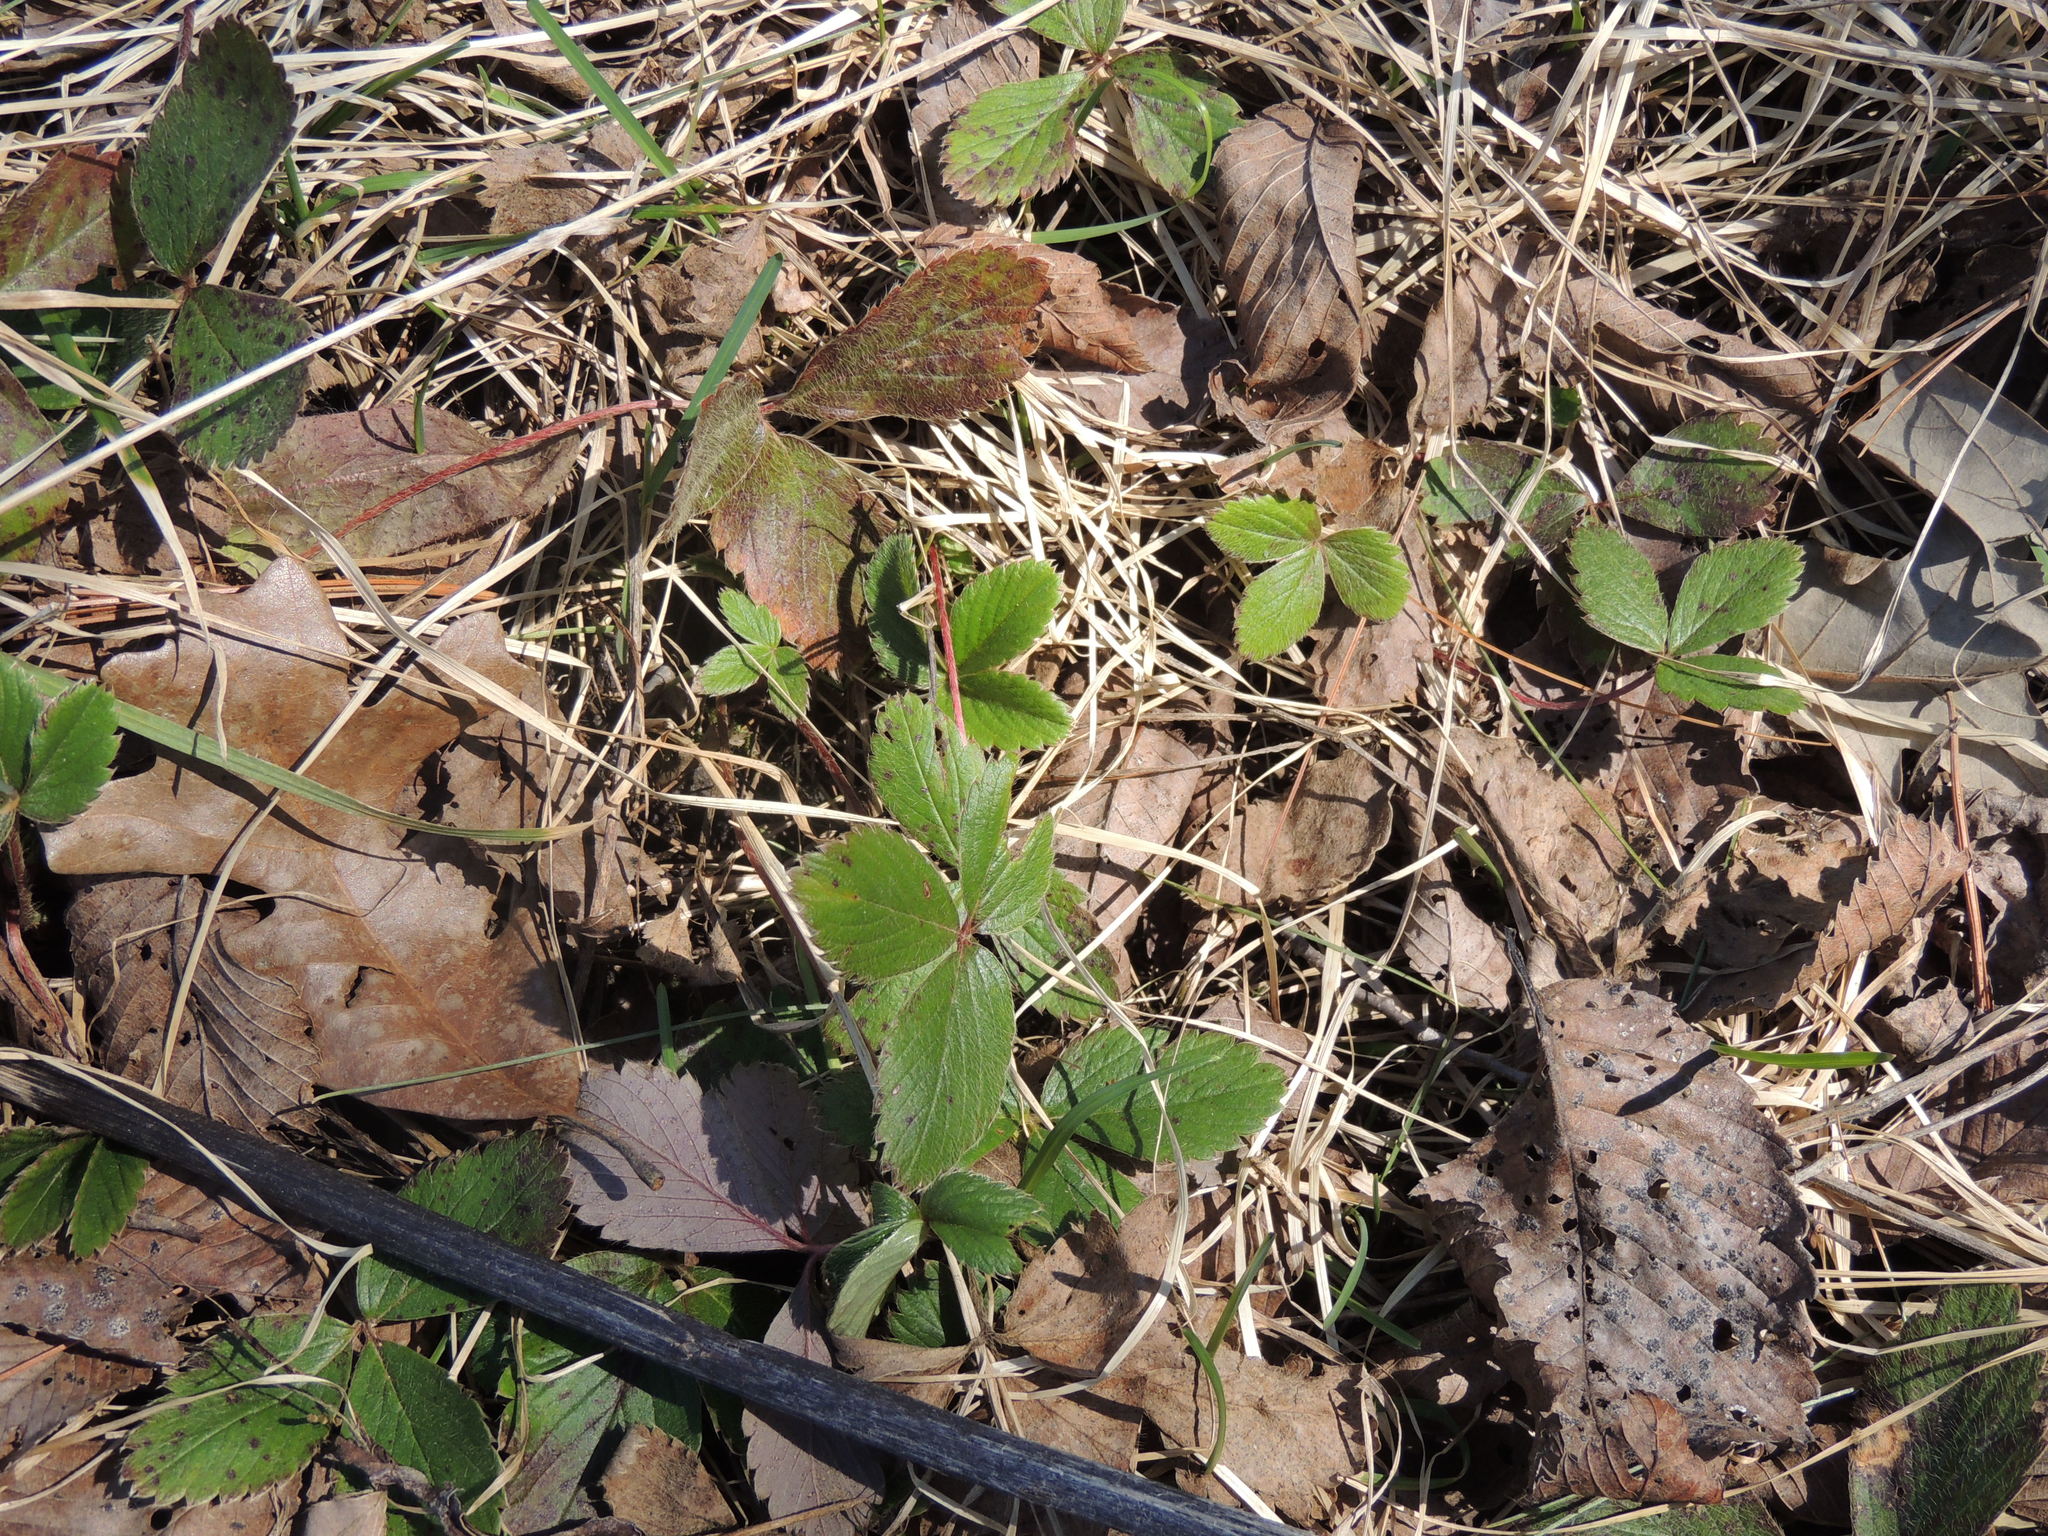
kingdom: Plantae
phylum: Tracheophyta
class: Magnoliopsida
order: Rosales
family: Rosaceae
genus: Fragaria
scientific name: Fragaria virginiana
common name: Thickleaved wild strawberry
